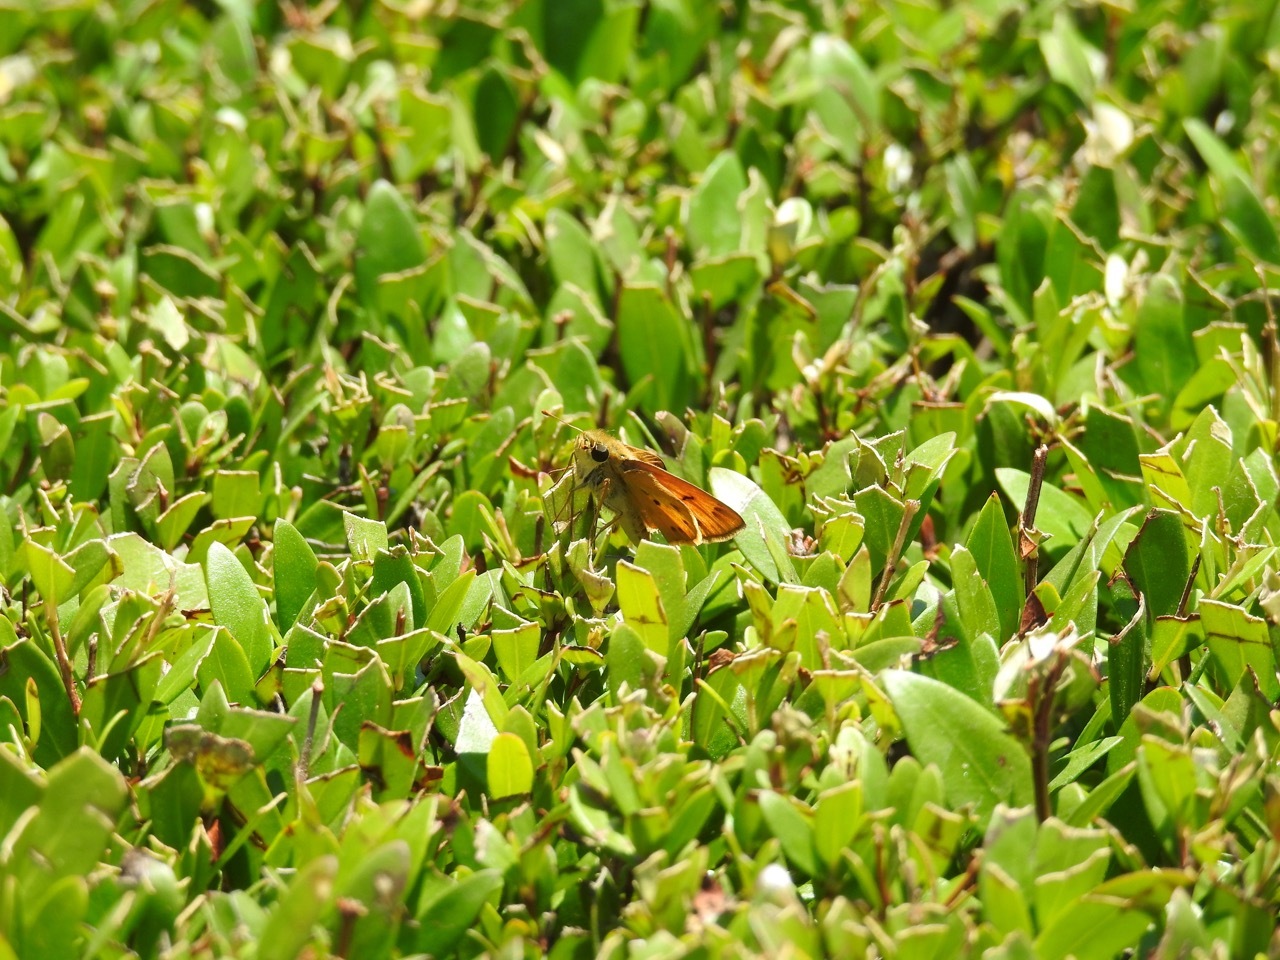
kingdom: Animalia
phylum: Arthropoda
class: Insecta
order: Lepidoptera
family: Hesperiidae
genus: Hylephila
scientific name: Hylephila phyleus
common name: Fiery skipper
